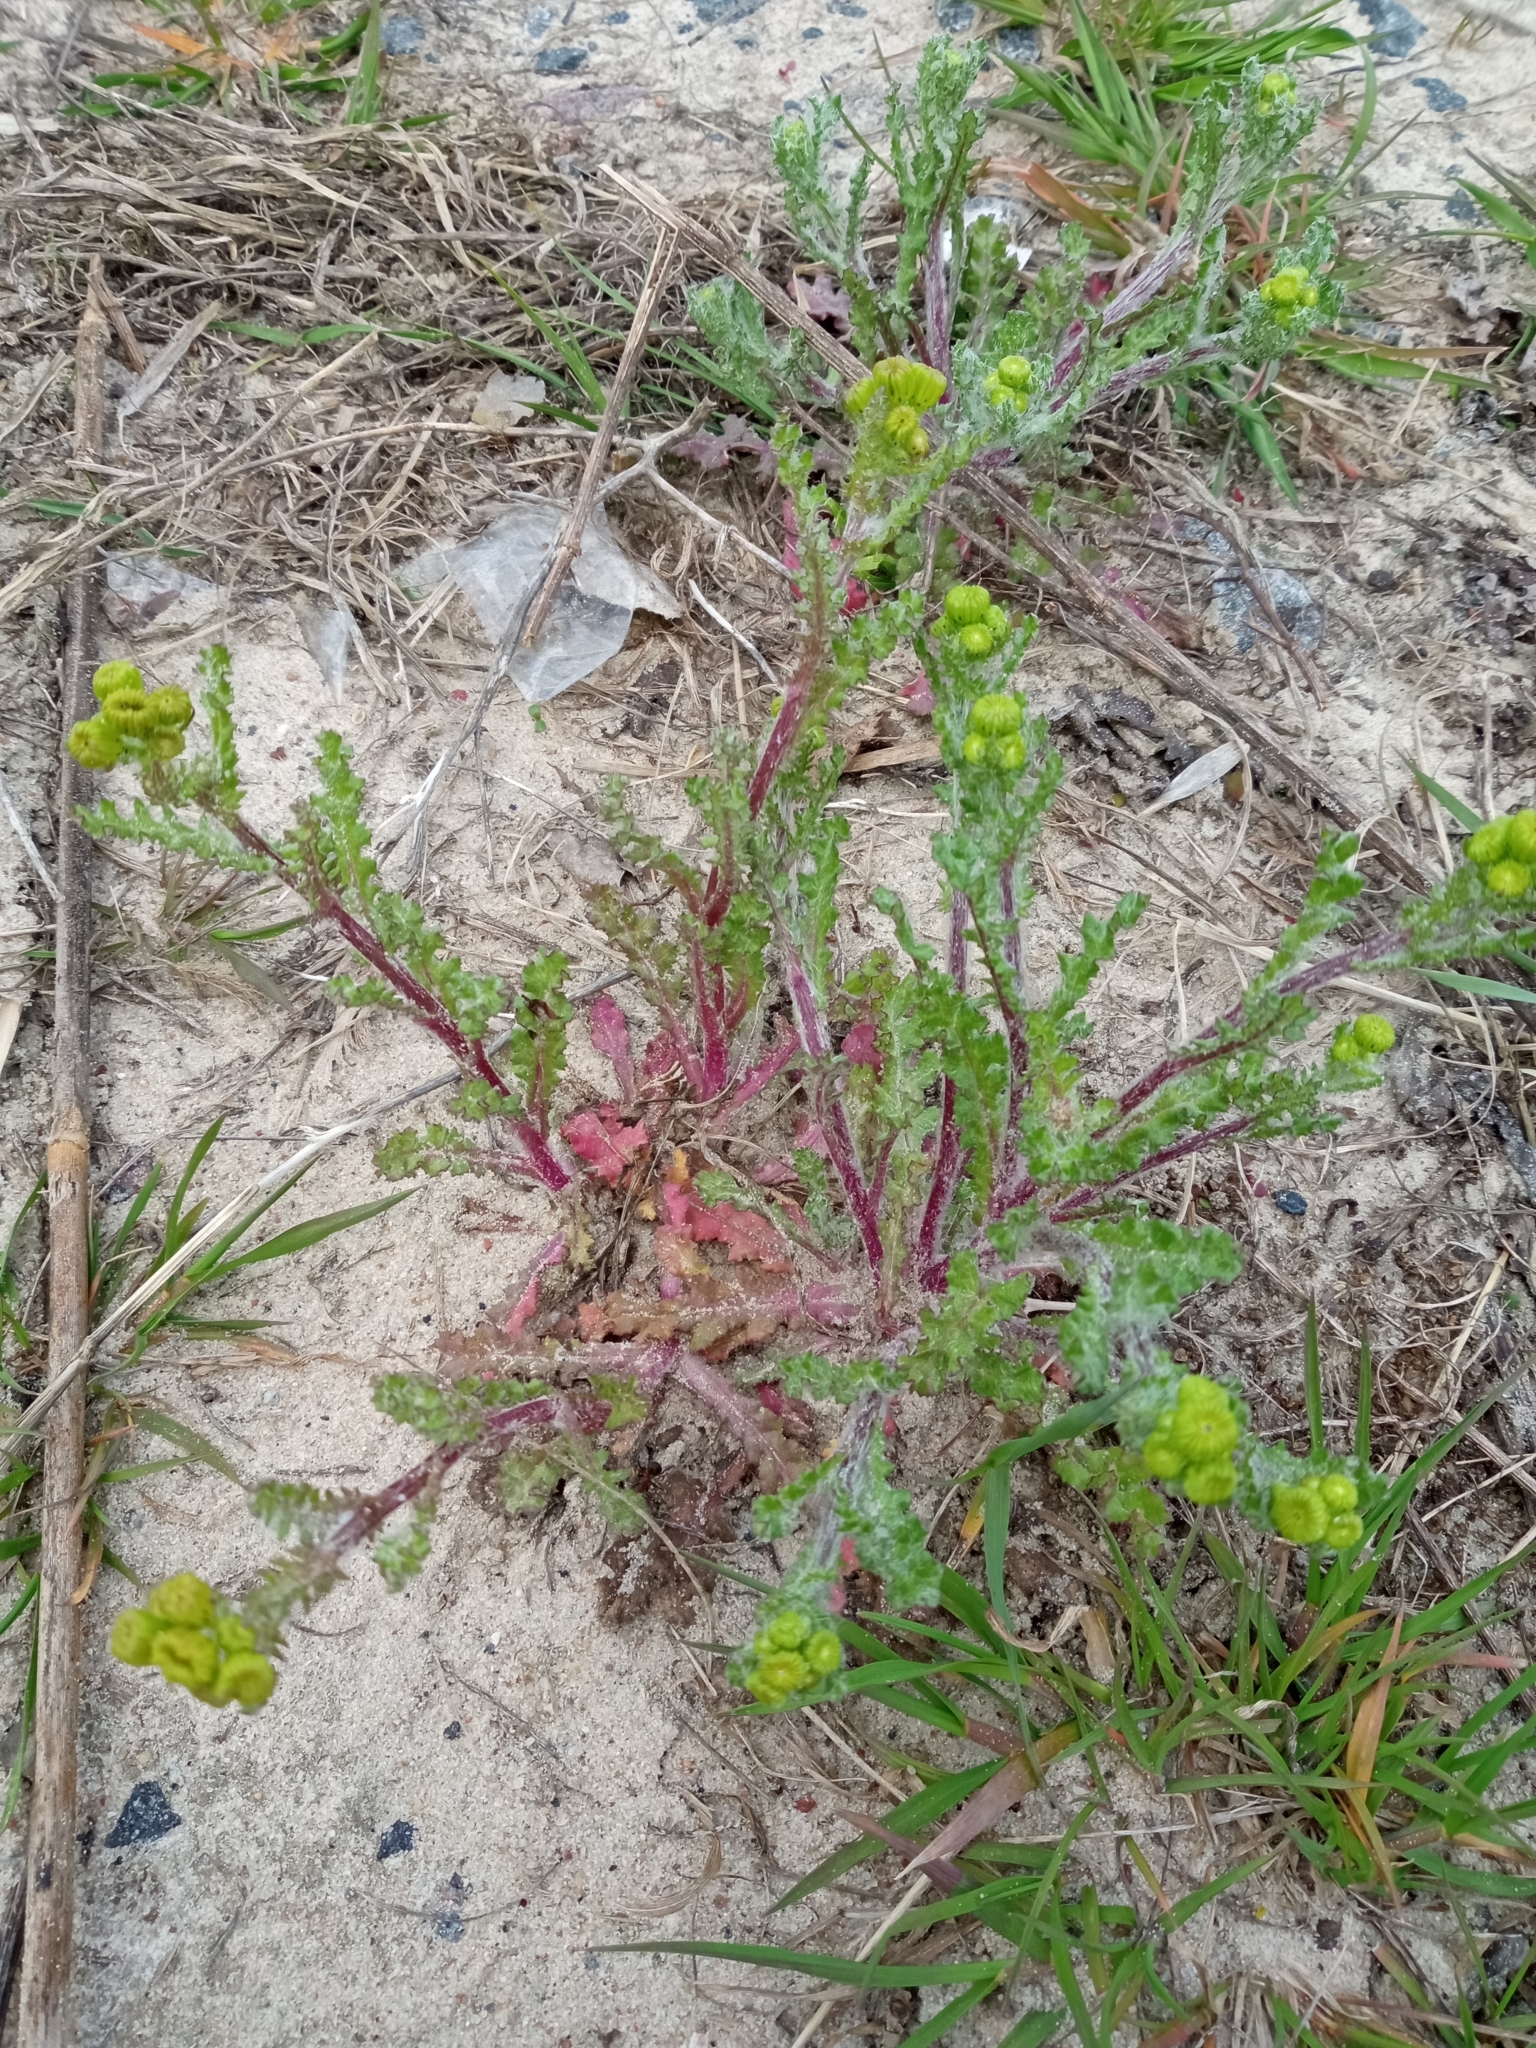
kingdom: Plantae
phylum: Tracheophyta
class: Magnoliopsida
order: Asterales
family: Asteraceae
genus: Senecio
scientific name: Senecio vernalis
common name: Eastern groundsel
